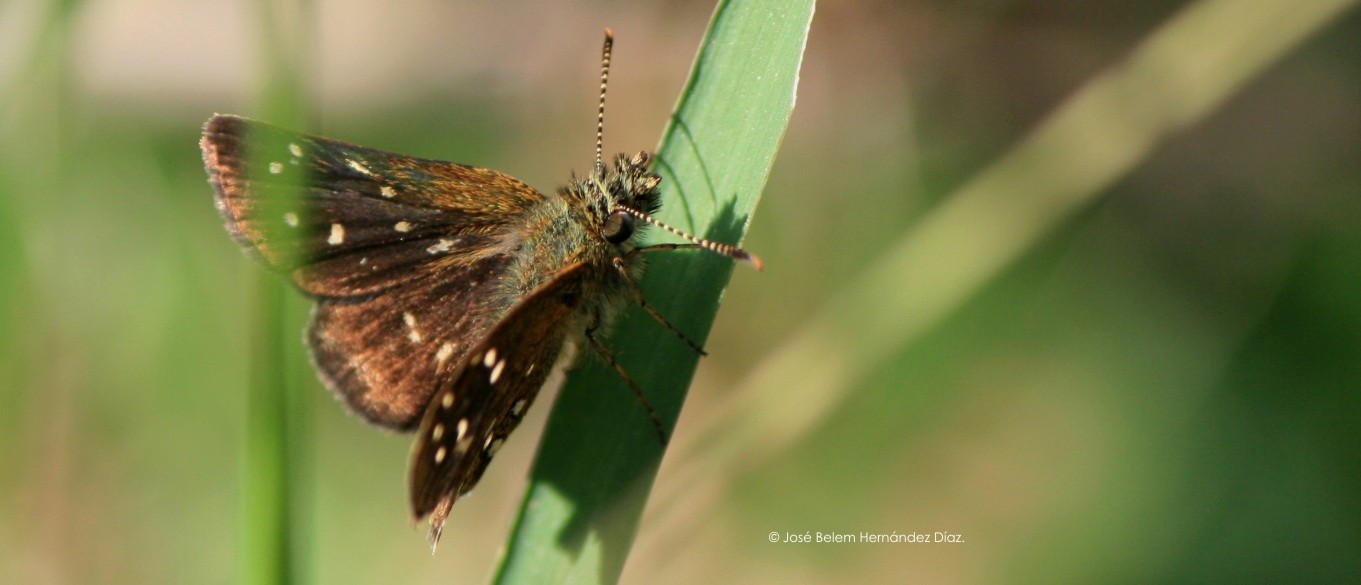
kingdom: Animalia
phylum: Arthropoda
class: Insecta
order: Lepidoptera
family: Hesperiidae
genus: Piruna
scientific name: Piruna aea
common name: Many-spotted skipperling
